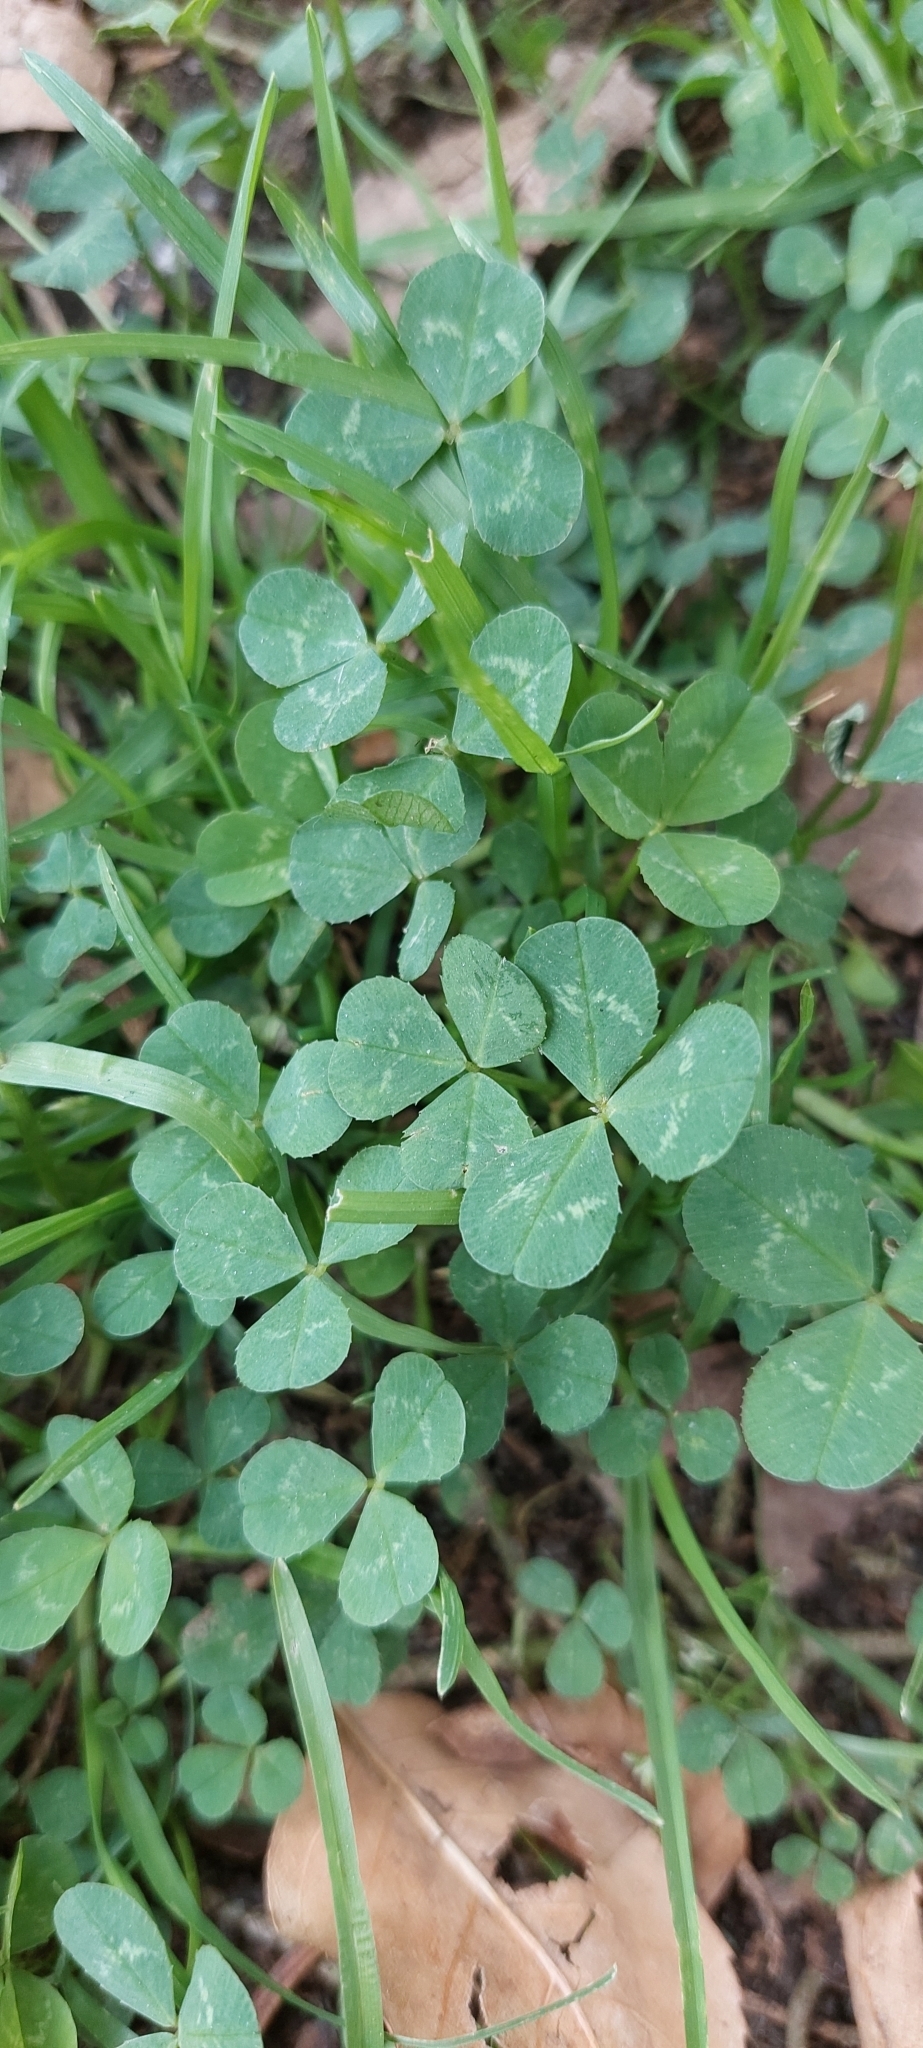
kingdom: Plantae
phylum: Tracheophyta
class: Magnoliopsida
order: Fabales
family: Fabaceae
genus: Trifolium
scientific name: Trifolium repens
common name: White clover
